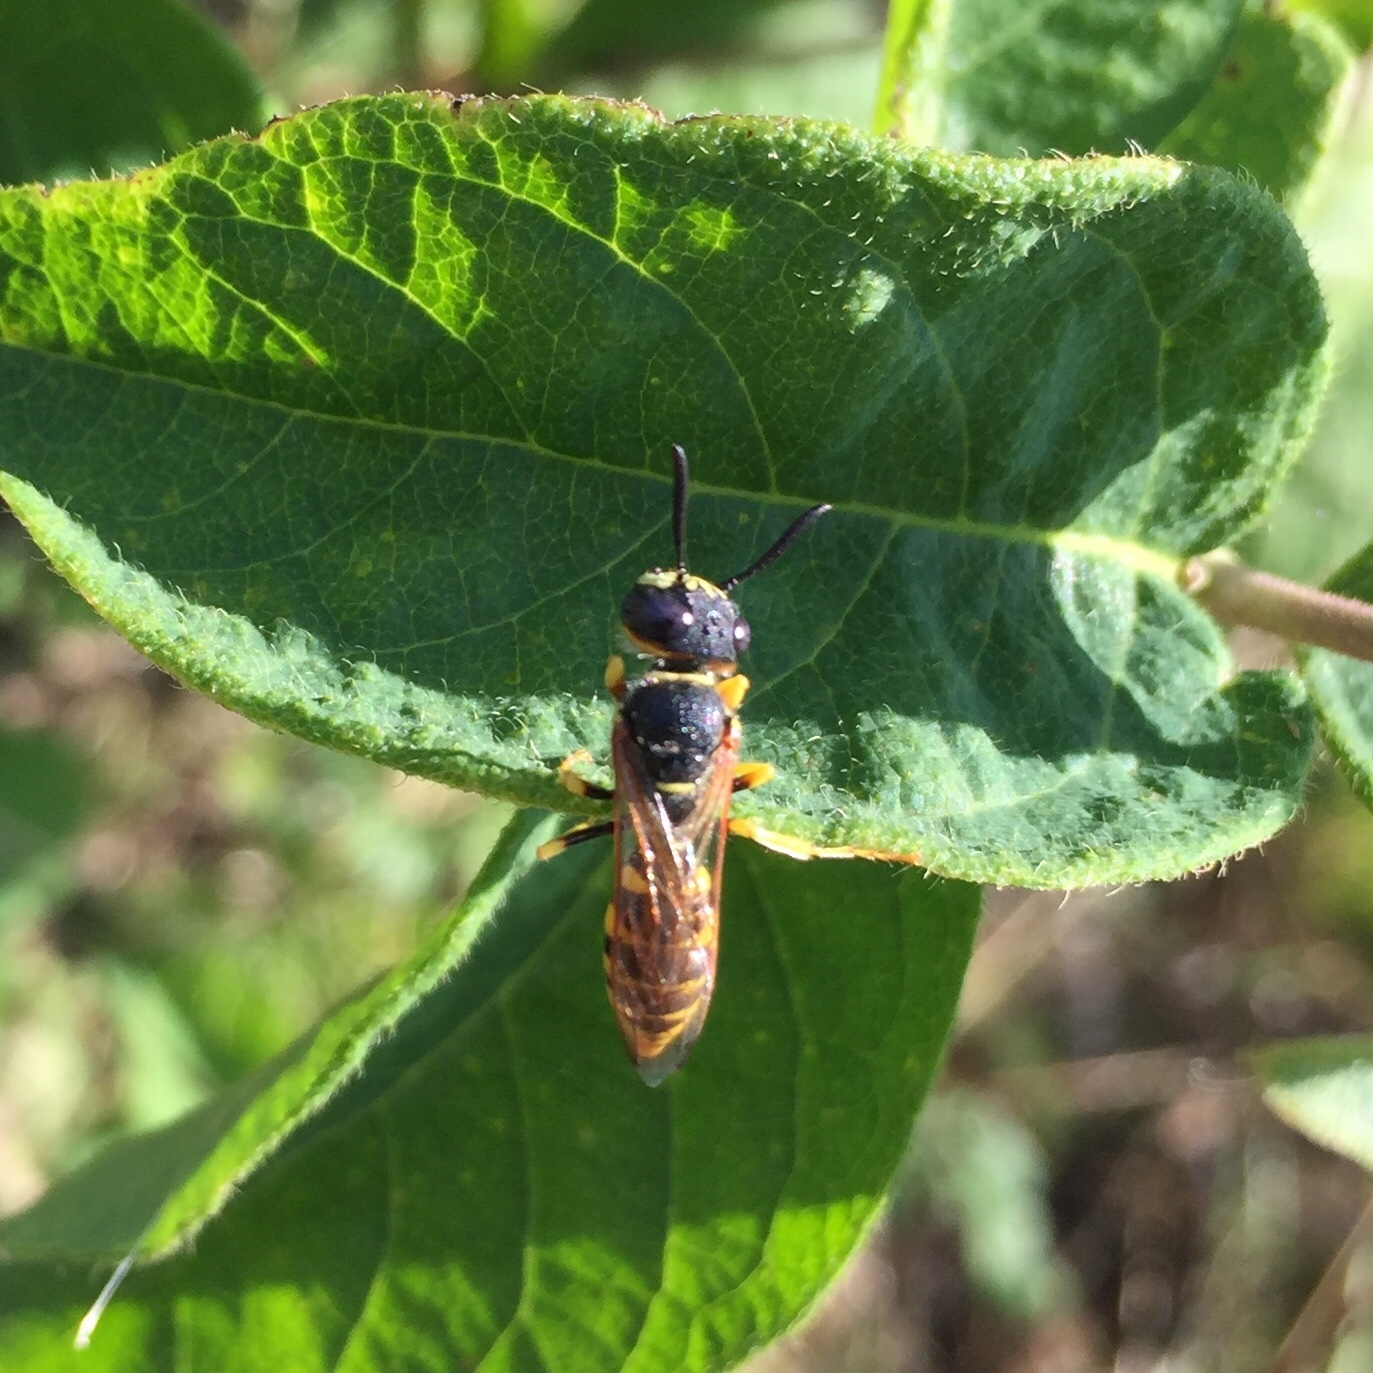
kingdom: Animalia
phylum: Arthropoda
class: Insecta
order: Hymenoptera
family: Crabronidae
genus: Philanthus
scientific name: Philanthus triangulum
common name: Bee wolf
